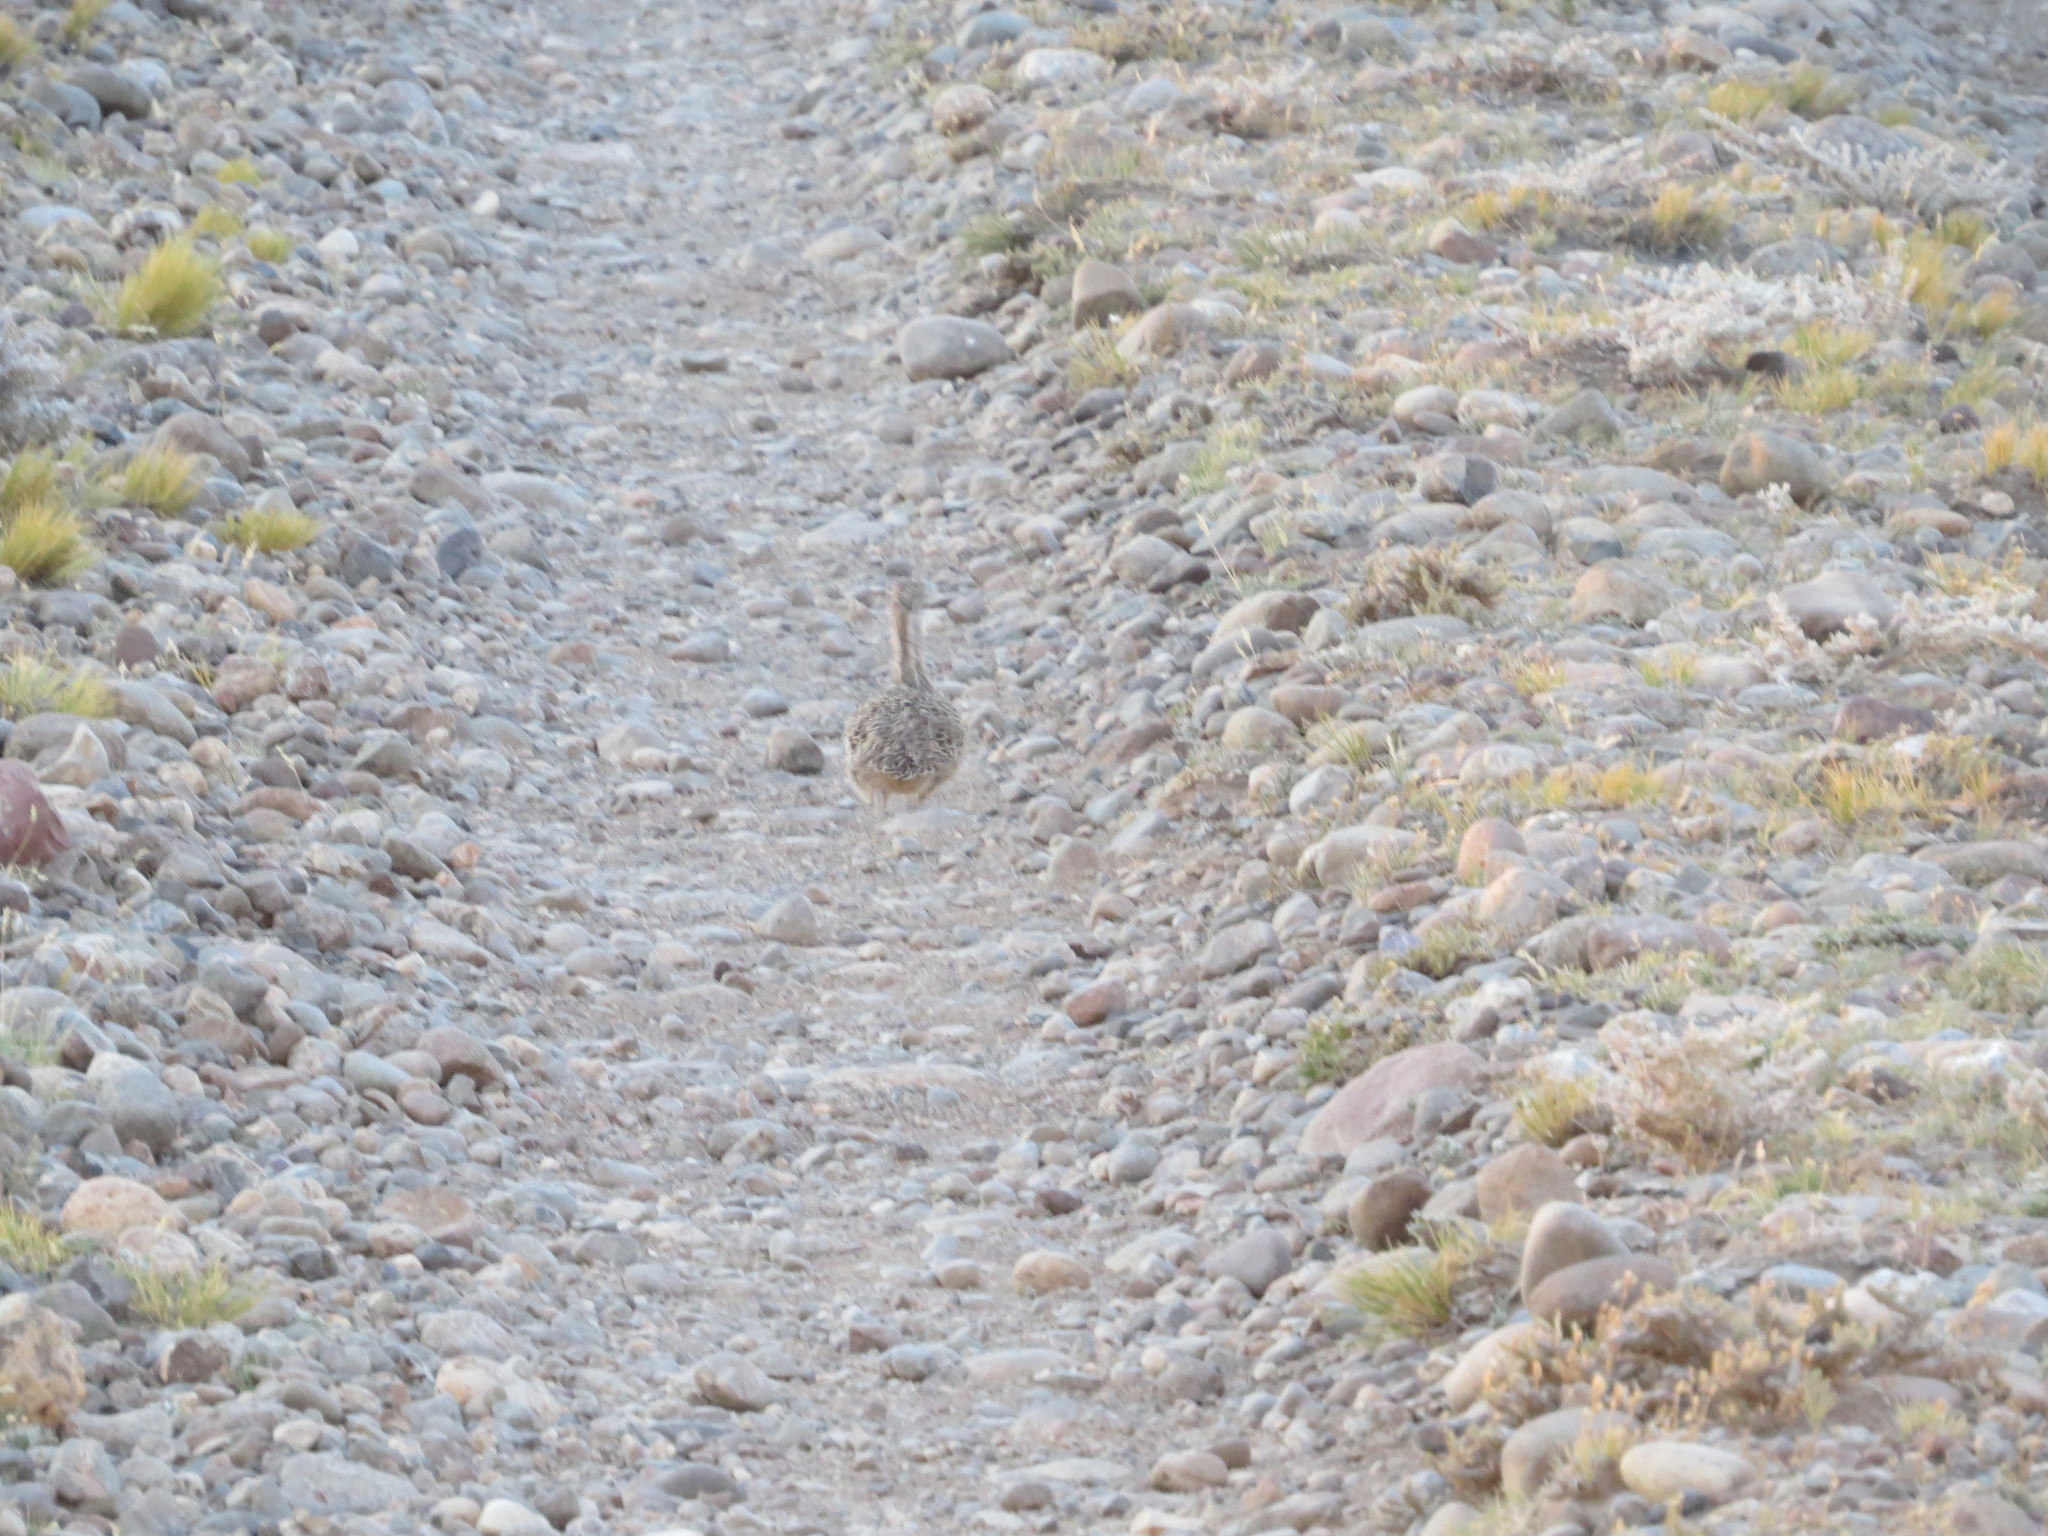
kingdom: Animalia
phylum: Chordata
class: Aves
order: Tinamiformes
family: Tinamidae
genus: Tinamotis
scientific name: Tinamotis ingoufi
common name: Patagonian tinamou
